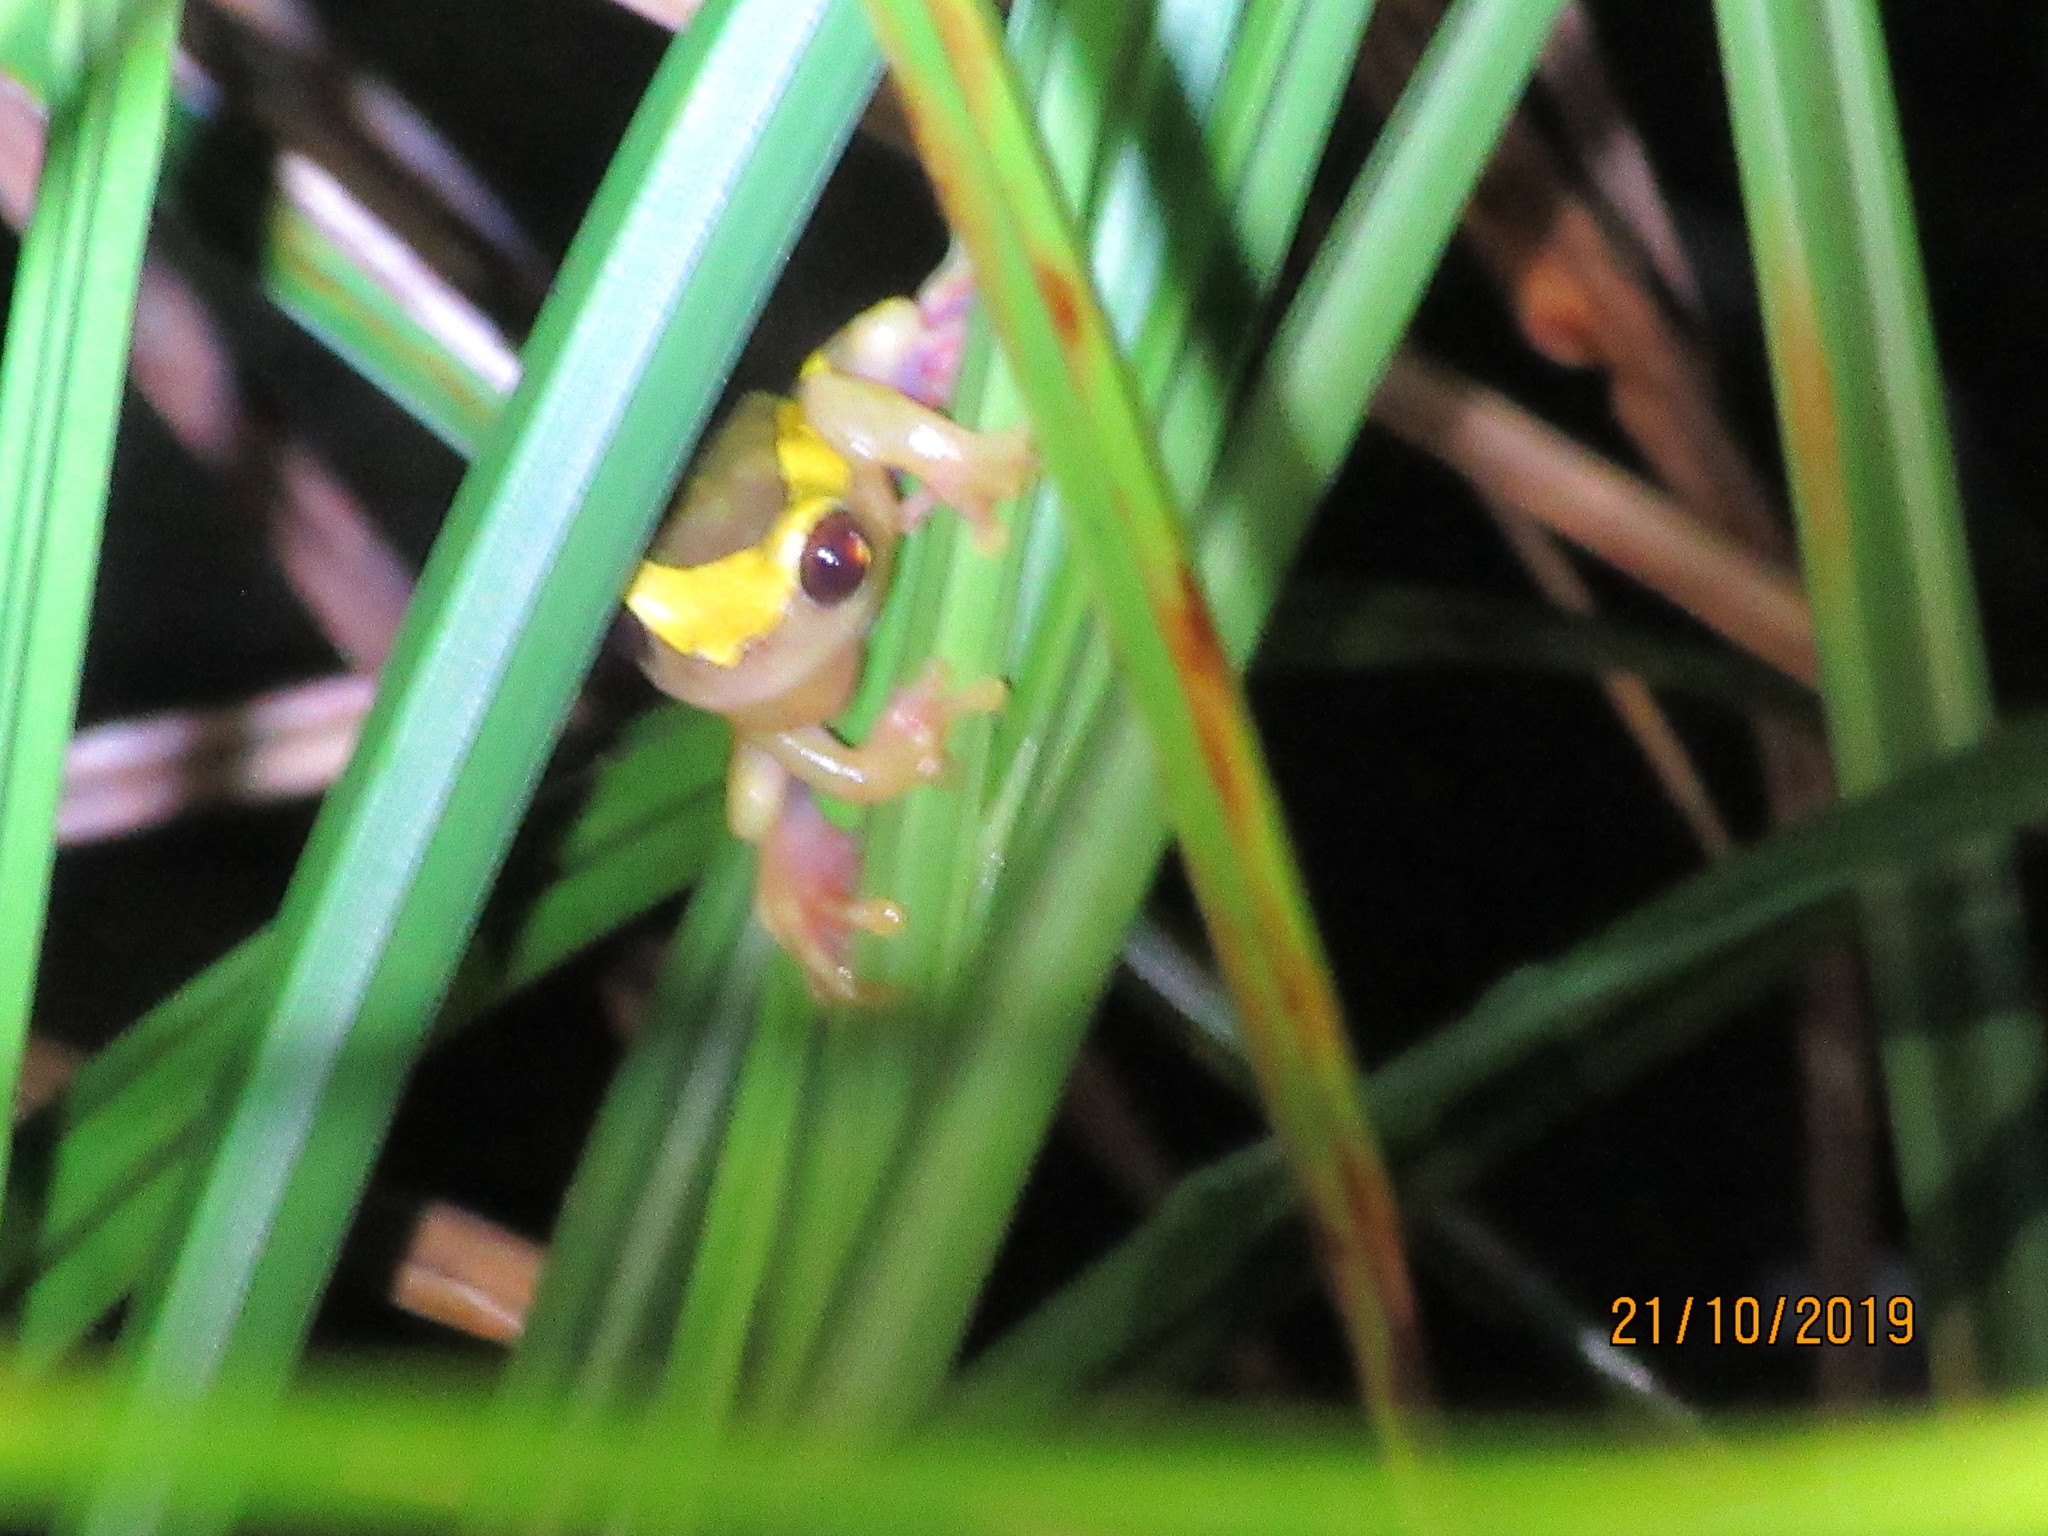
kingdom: Animalia
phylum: Chordata
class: Amphibia
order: Anura
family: Hylidae
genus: Dendropsophus
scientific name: Dendropsophus leucophyllatus
